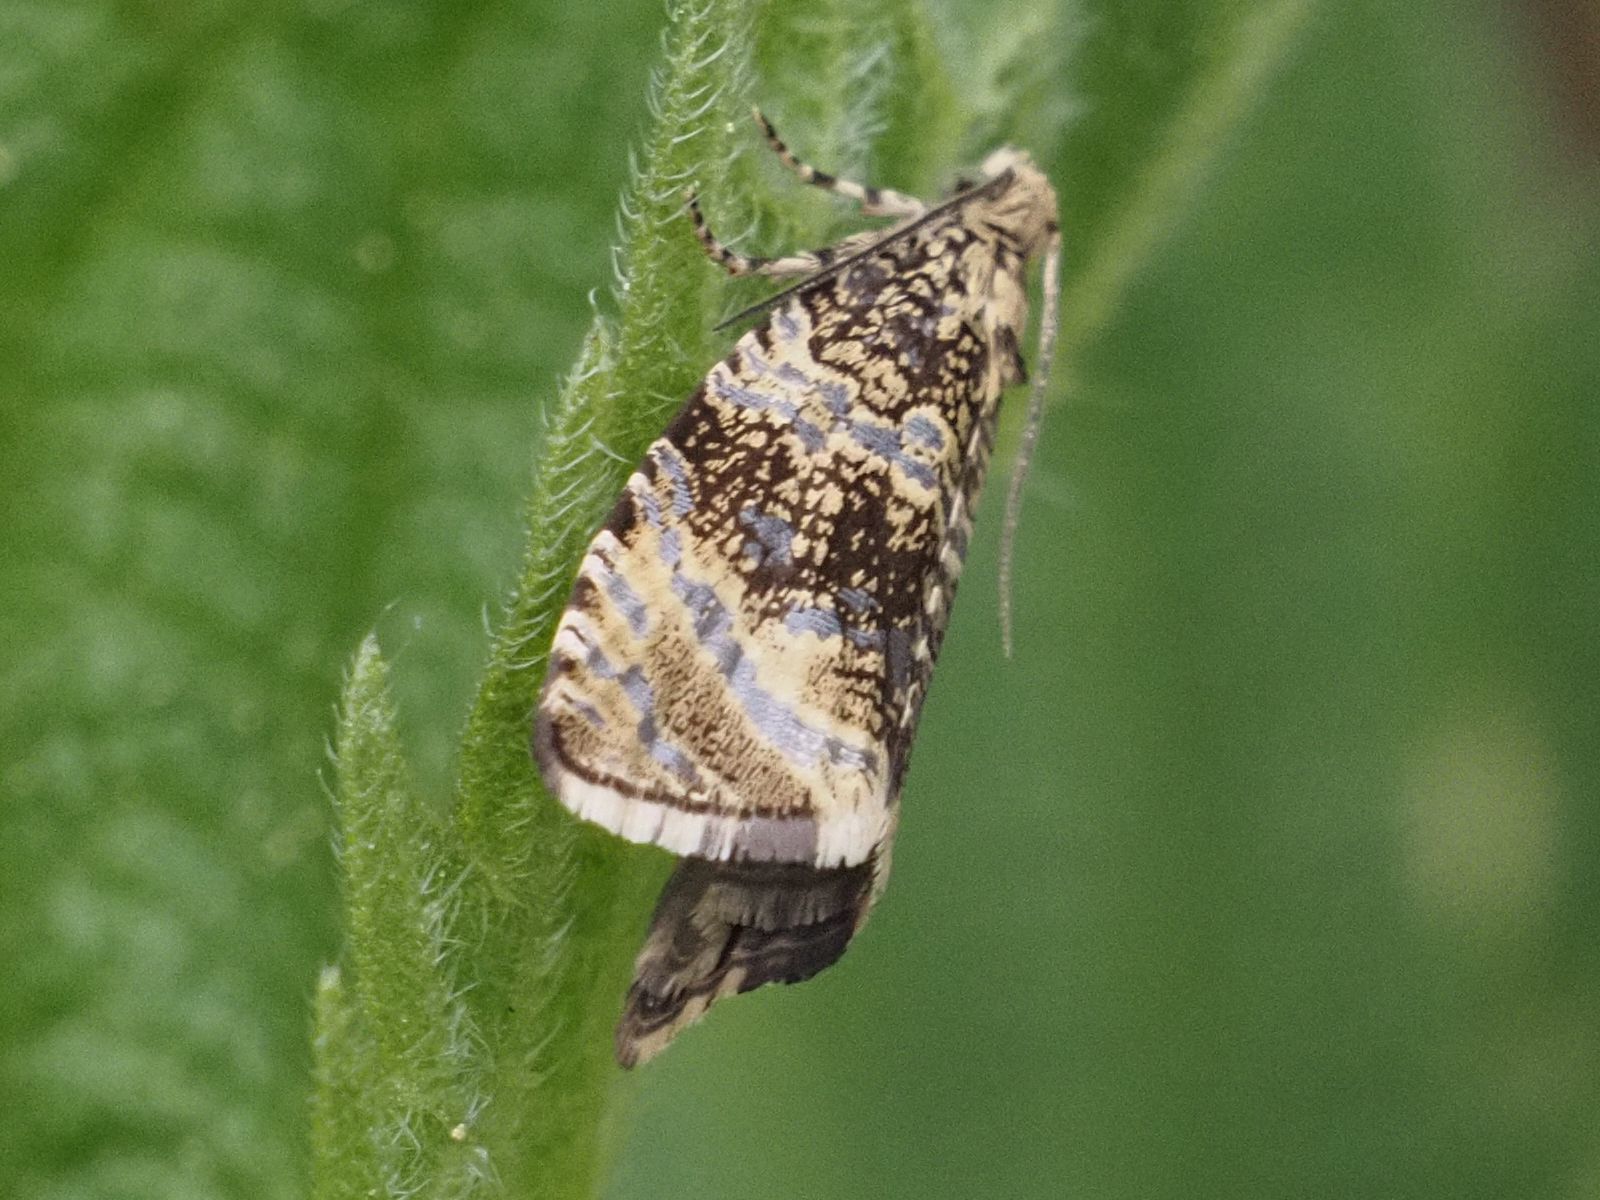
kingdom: Animalia
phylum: Arthropoda
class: Insecta
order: Lepidoptera
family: Tortricidae
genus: Syricoris
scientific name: Syricoris lacunana
